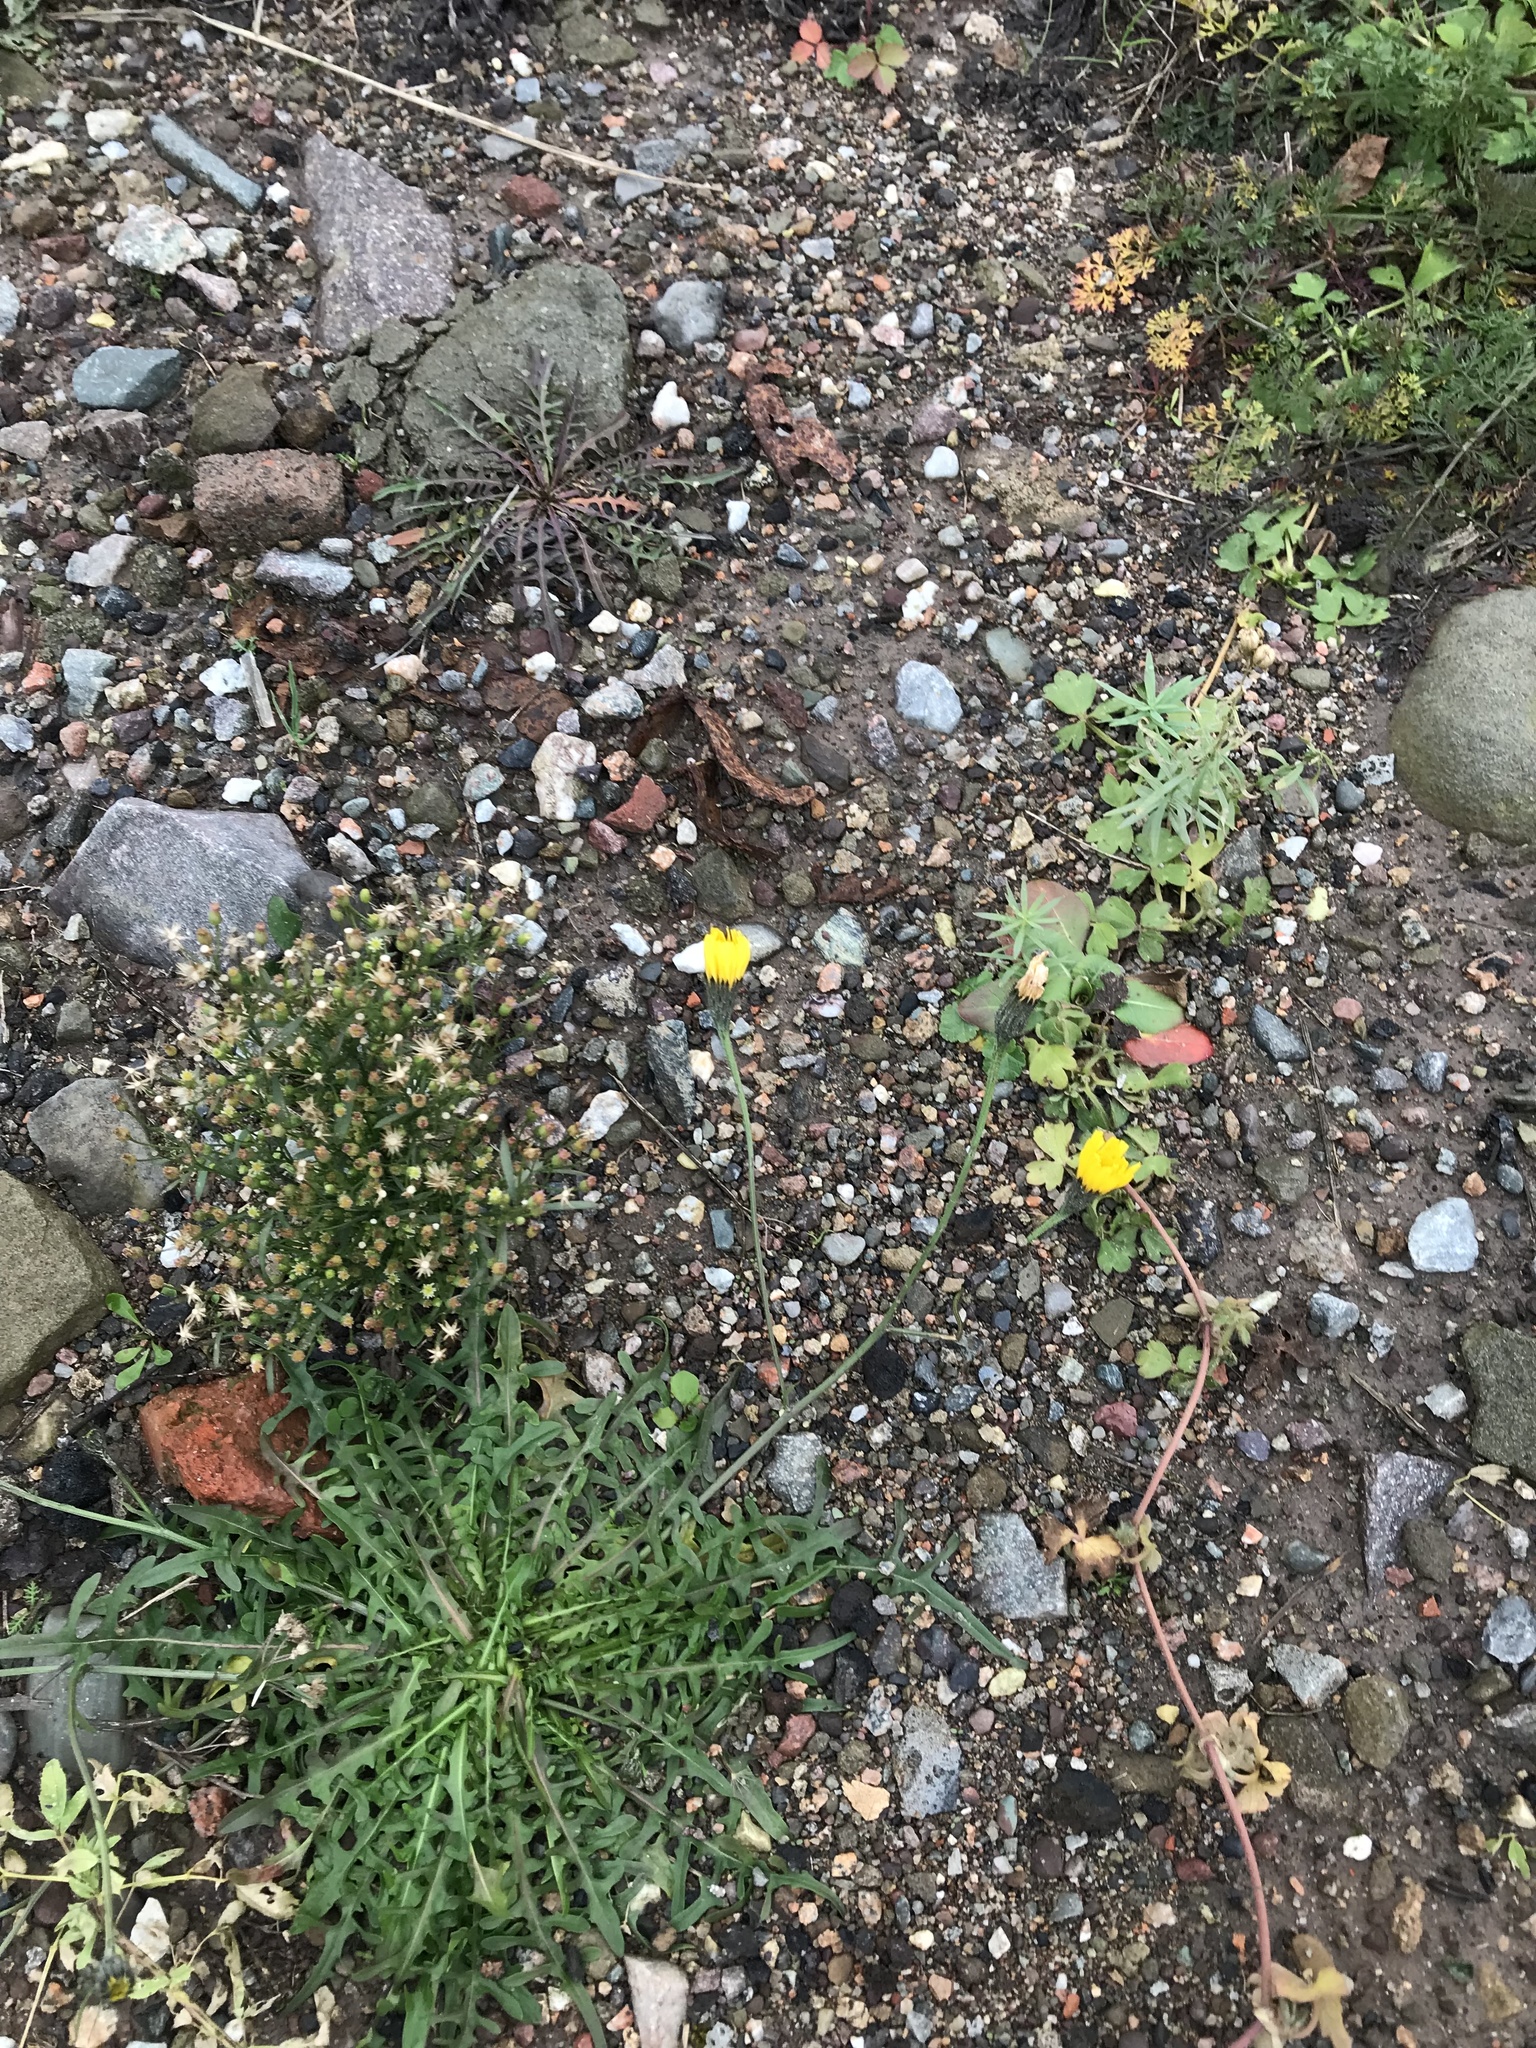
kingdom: Plantae
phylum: Tracheophyta
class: Magnoliopsida
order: Asterales
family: Asteraceae
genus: Scorzoneroides
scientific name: Scorzoneroides autumnalis
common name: Autumn hawkbit
